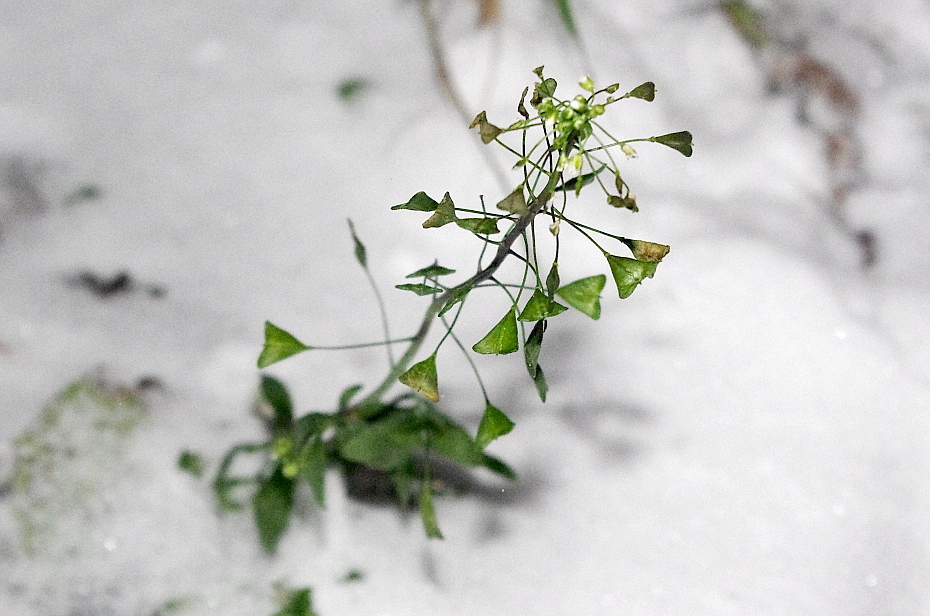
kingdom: Plantae
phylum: Tracheophyta
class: Magnoliopsida
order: Brassicales
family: Brassicaceae
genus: Capsella
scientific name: Capsella bursa-pastoris
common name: Shepherd's purse
